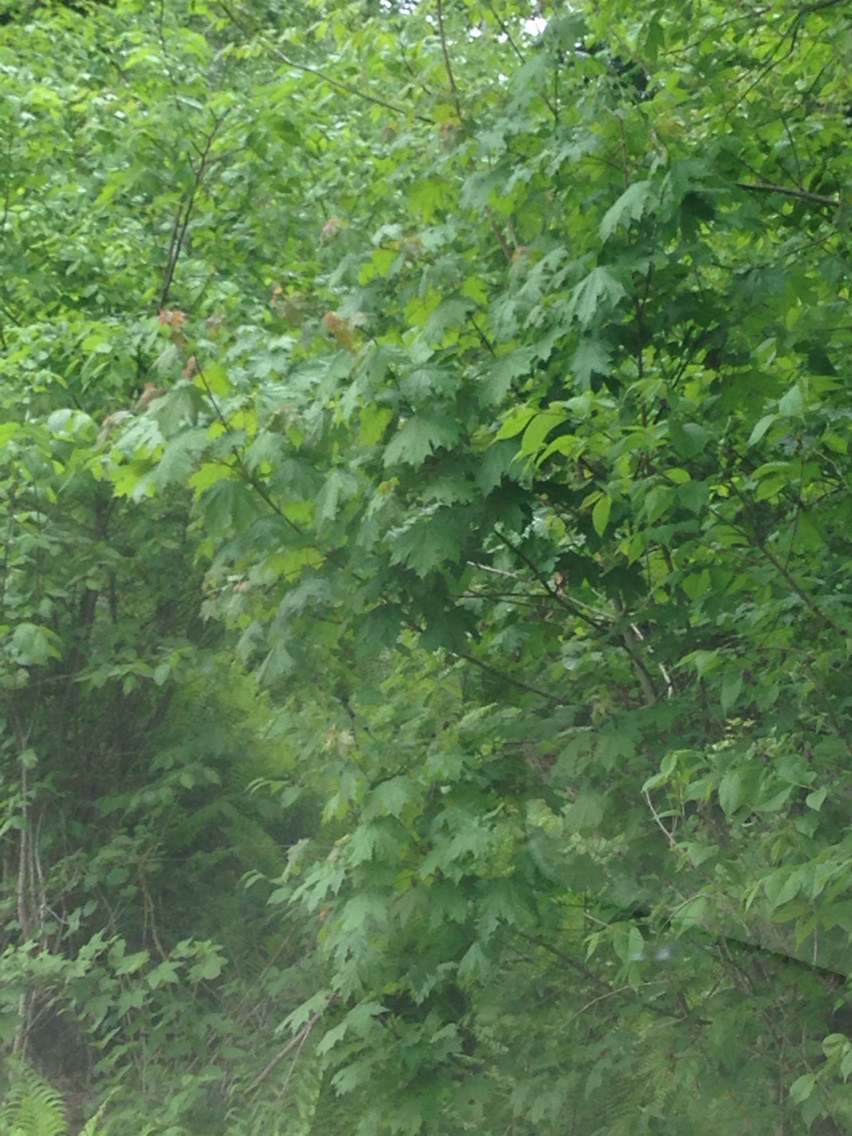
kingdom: Plantae
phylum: Tracheophyta
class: Magnoliopsida
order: Sapindales
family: Sapindaceae
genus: Acer
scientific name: Acer saccharum
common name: Sugar maple
